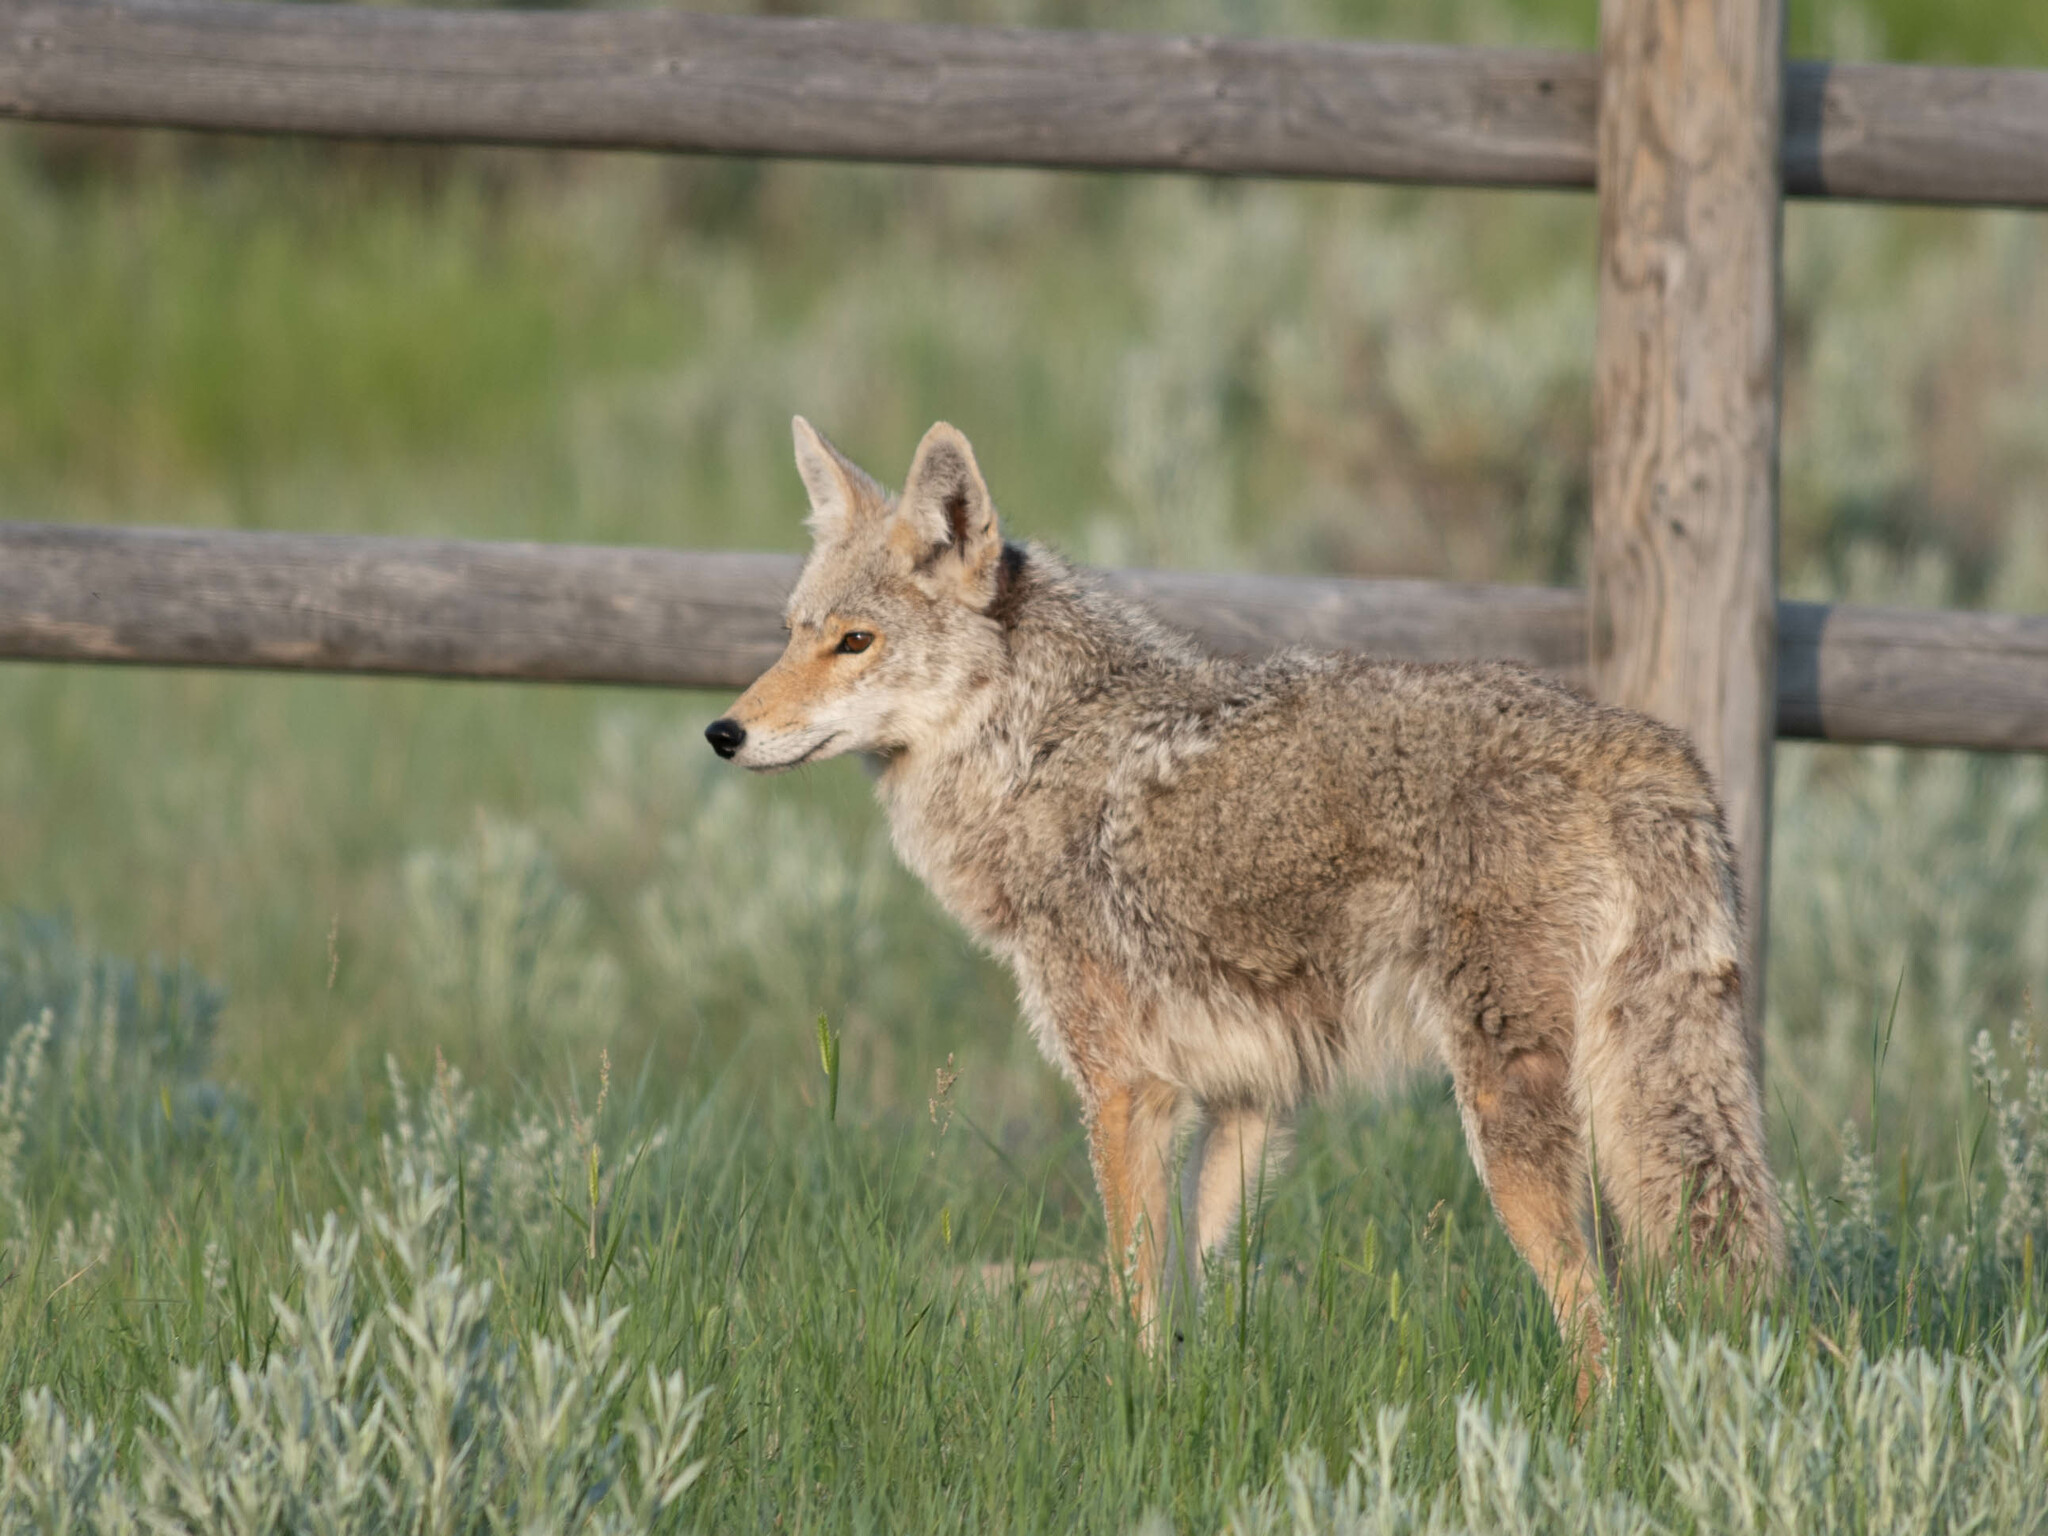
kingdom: Animalia
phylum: Chordata
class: Mammalia
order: Carnivora
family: Canidae
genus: Canis
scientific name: Canis latrans
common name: Coyote
